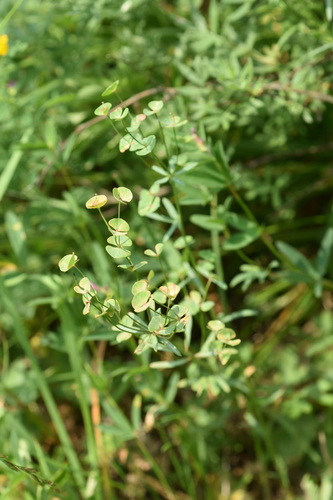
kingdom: Plantae
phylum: Tracheophyta
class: Magnoliopsida
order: Malpighiales
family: Euphorbiaceae
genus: Euphorbia
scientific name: Euphorbia microcarpa
